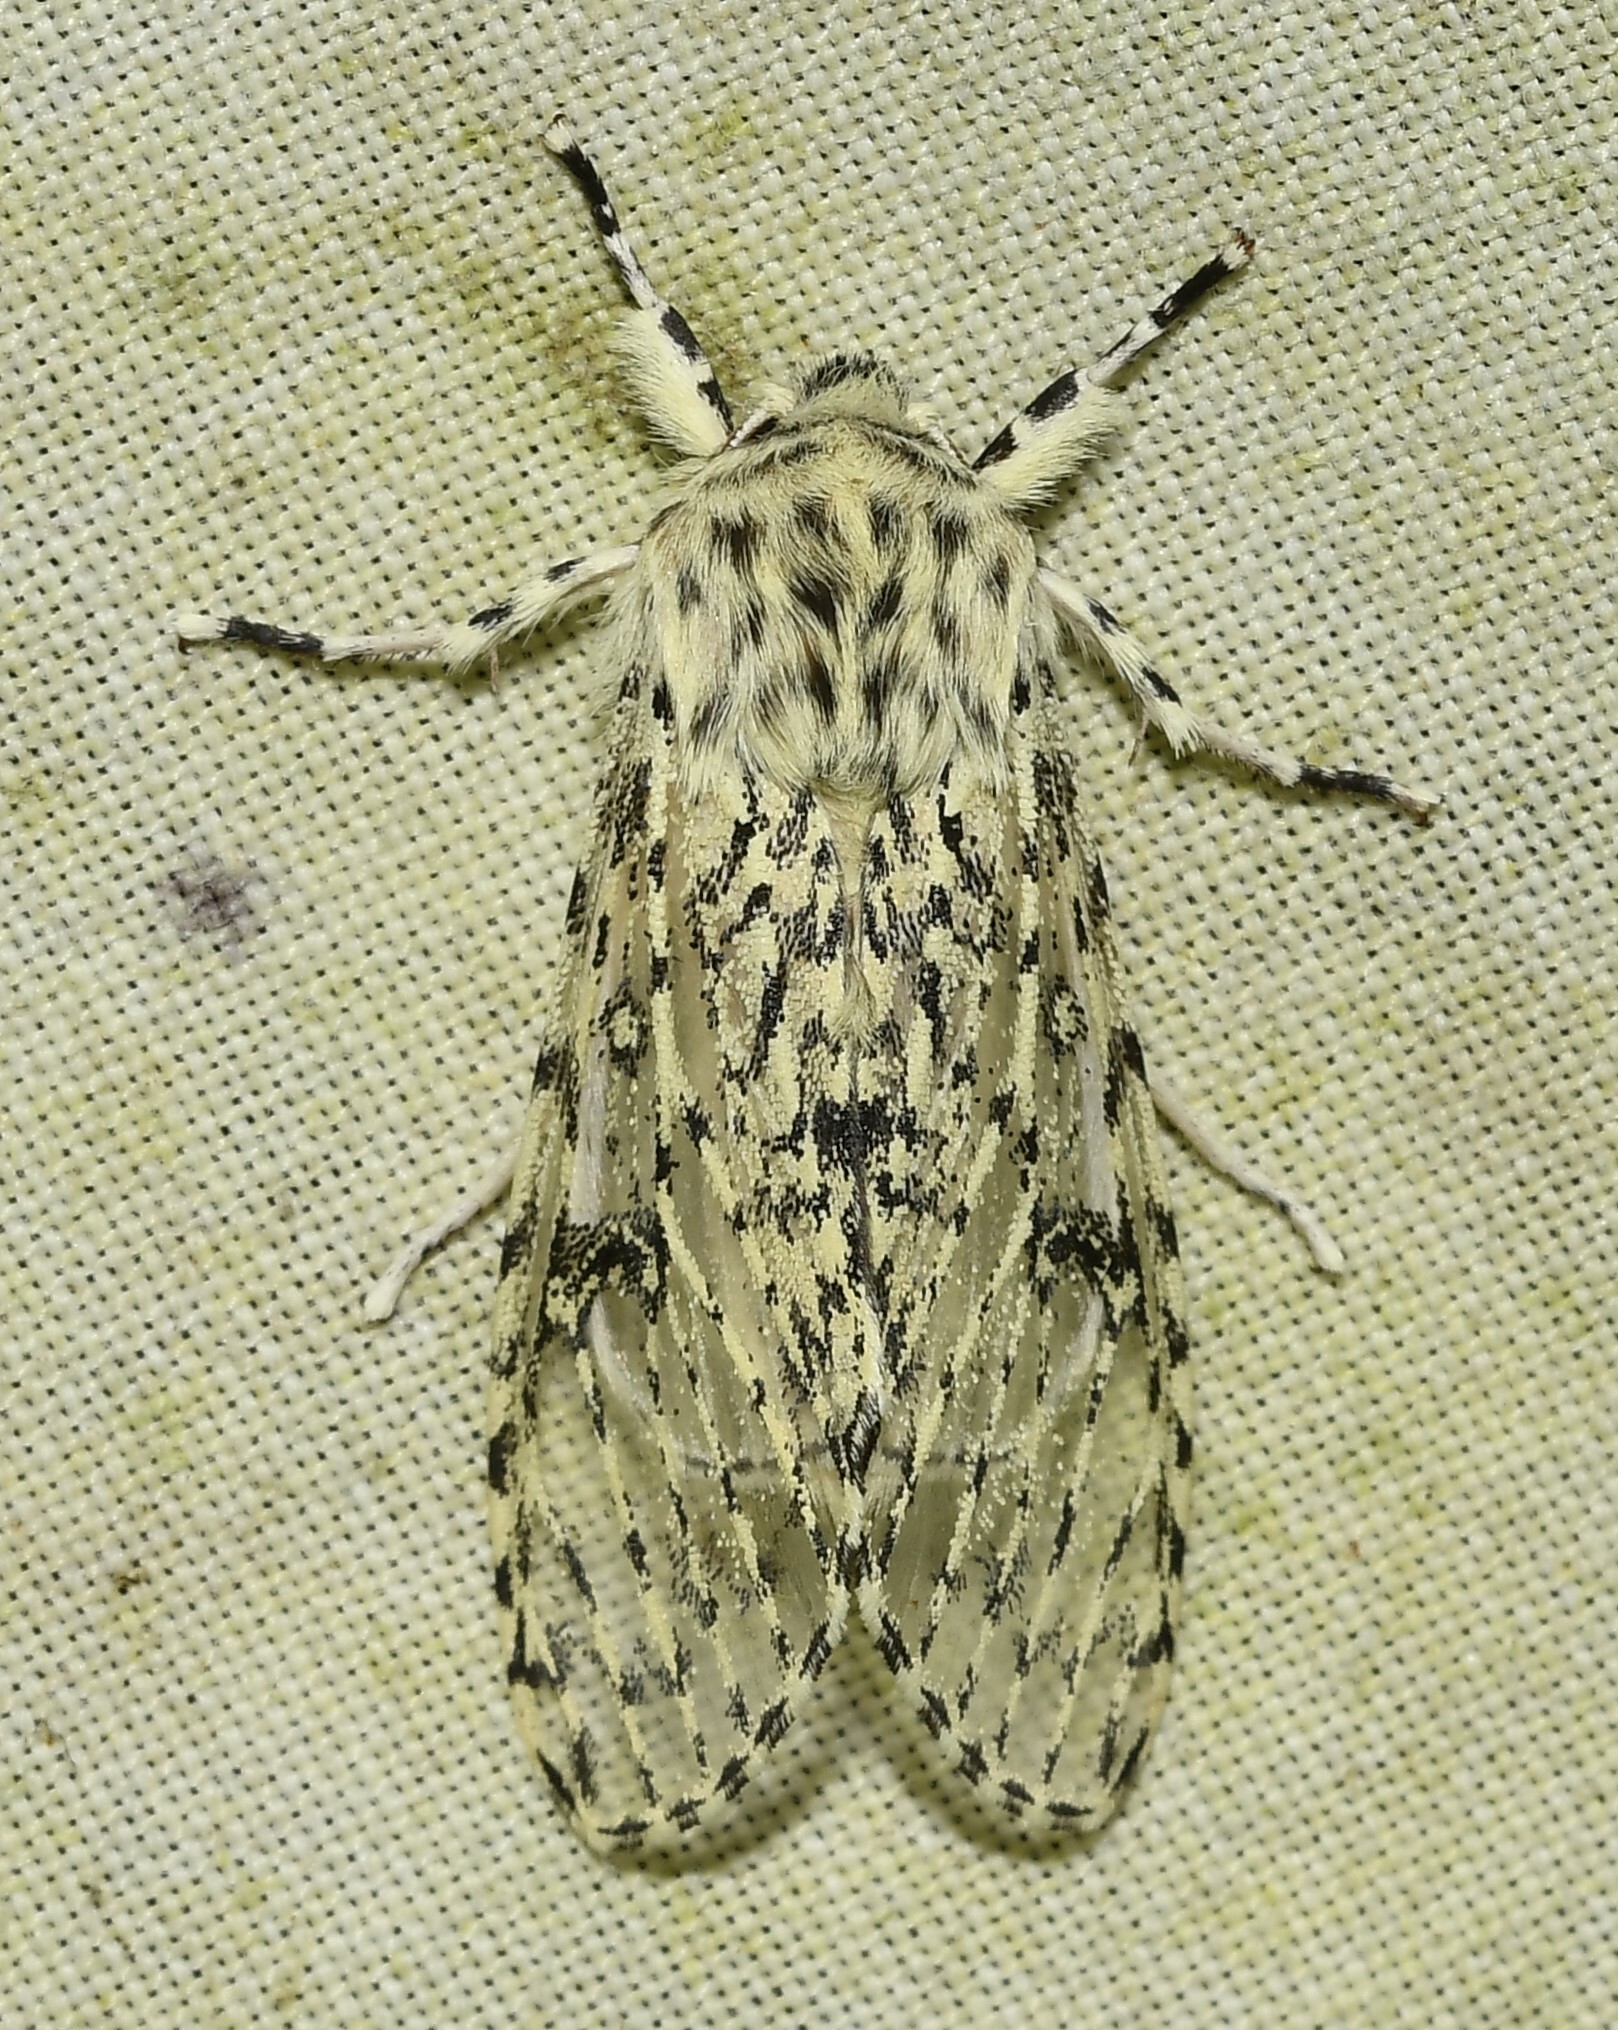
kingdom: Animalia
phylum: Arthropoda
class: Insecta
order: Lepidoptera
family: Noctuidae
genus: Oculicattus
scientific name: Oculicattus brehmi
